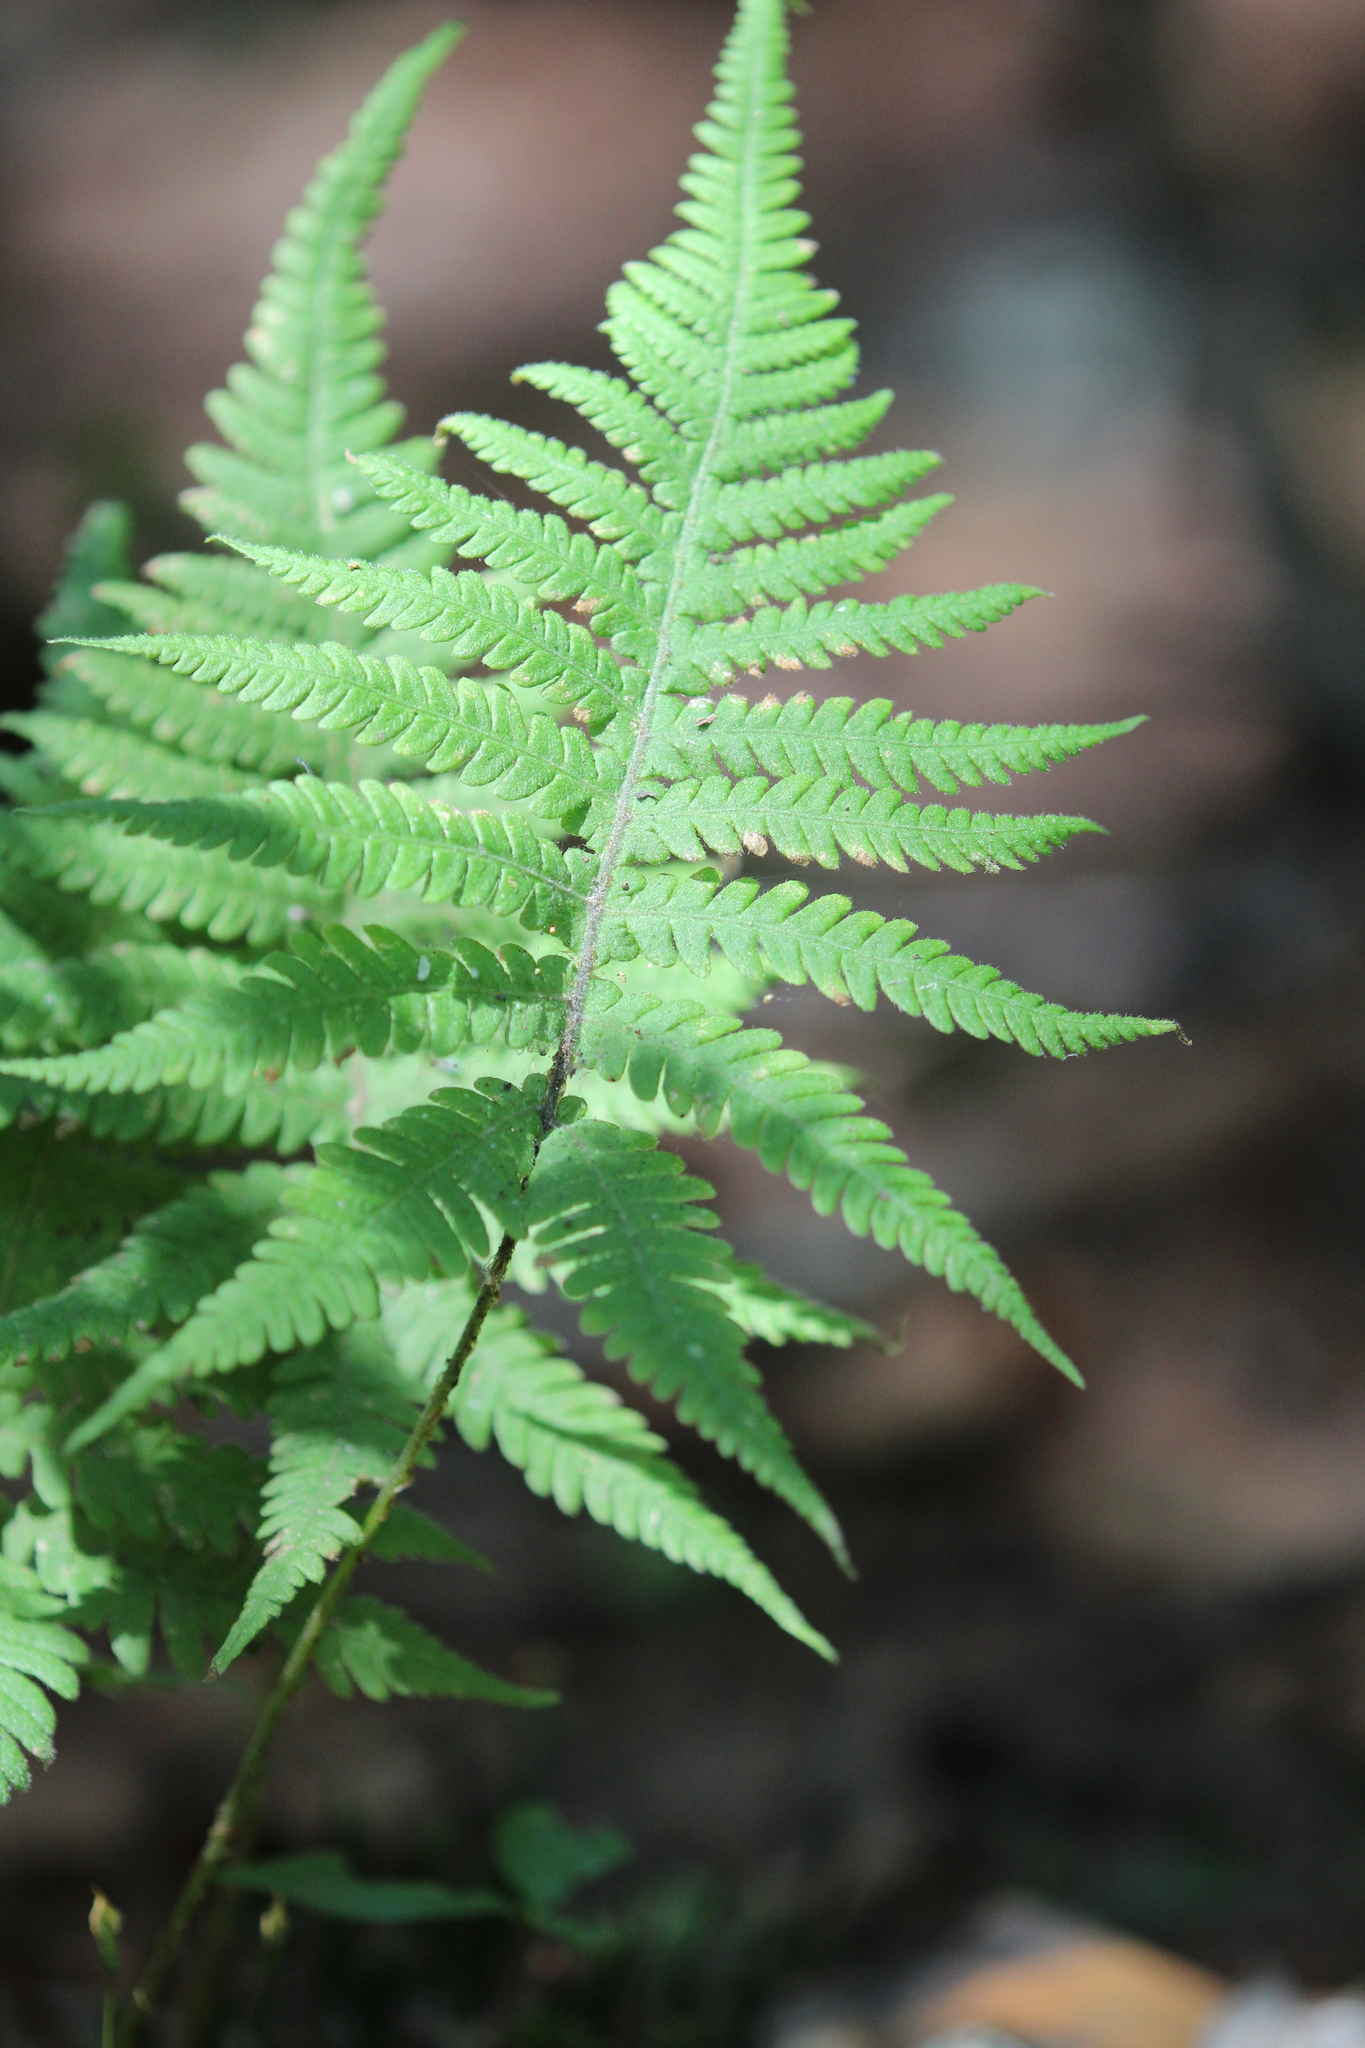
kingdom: Plantae
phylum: Tracheophyta
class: Polypodiopsida
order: Polypodiales
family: Thelypteridaceae
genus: Phegopteris
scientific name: Phegopteris connectilis
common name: Beech fern
